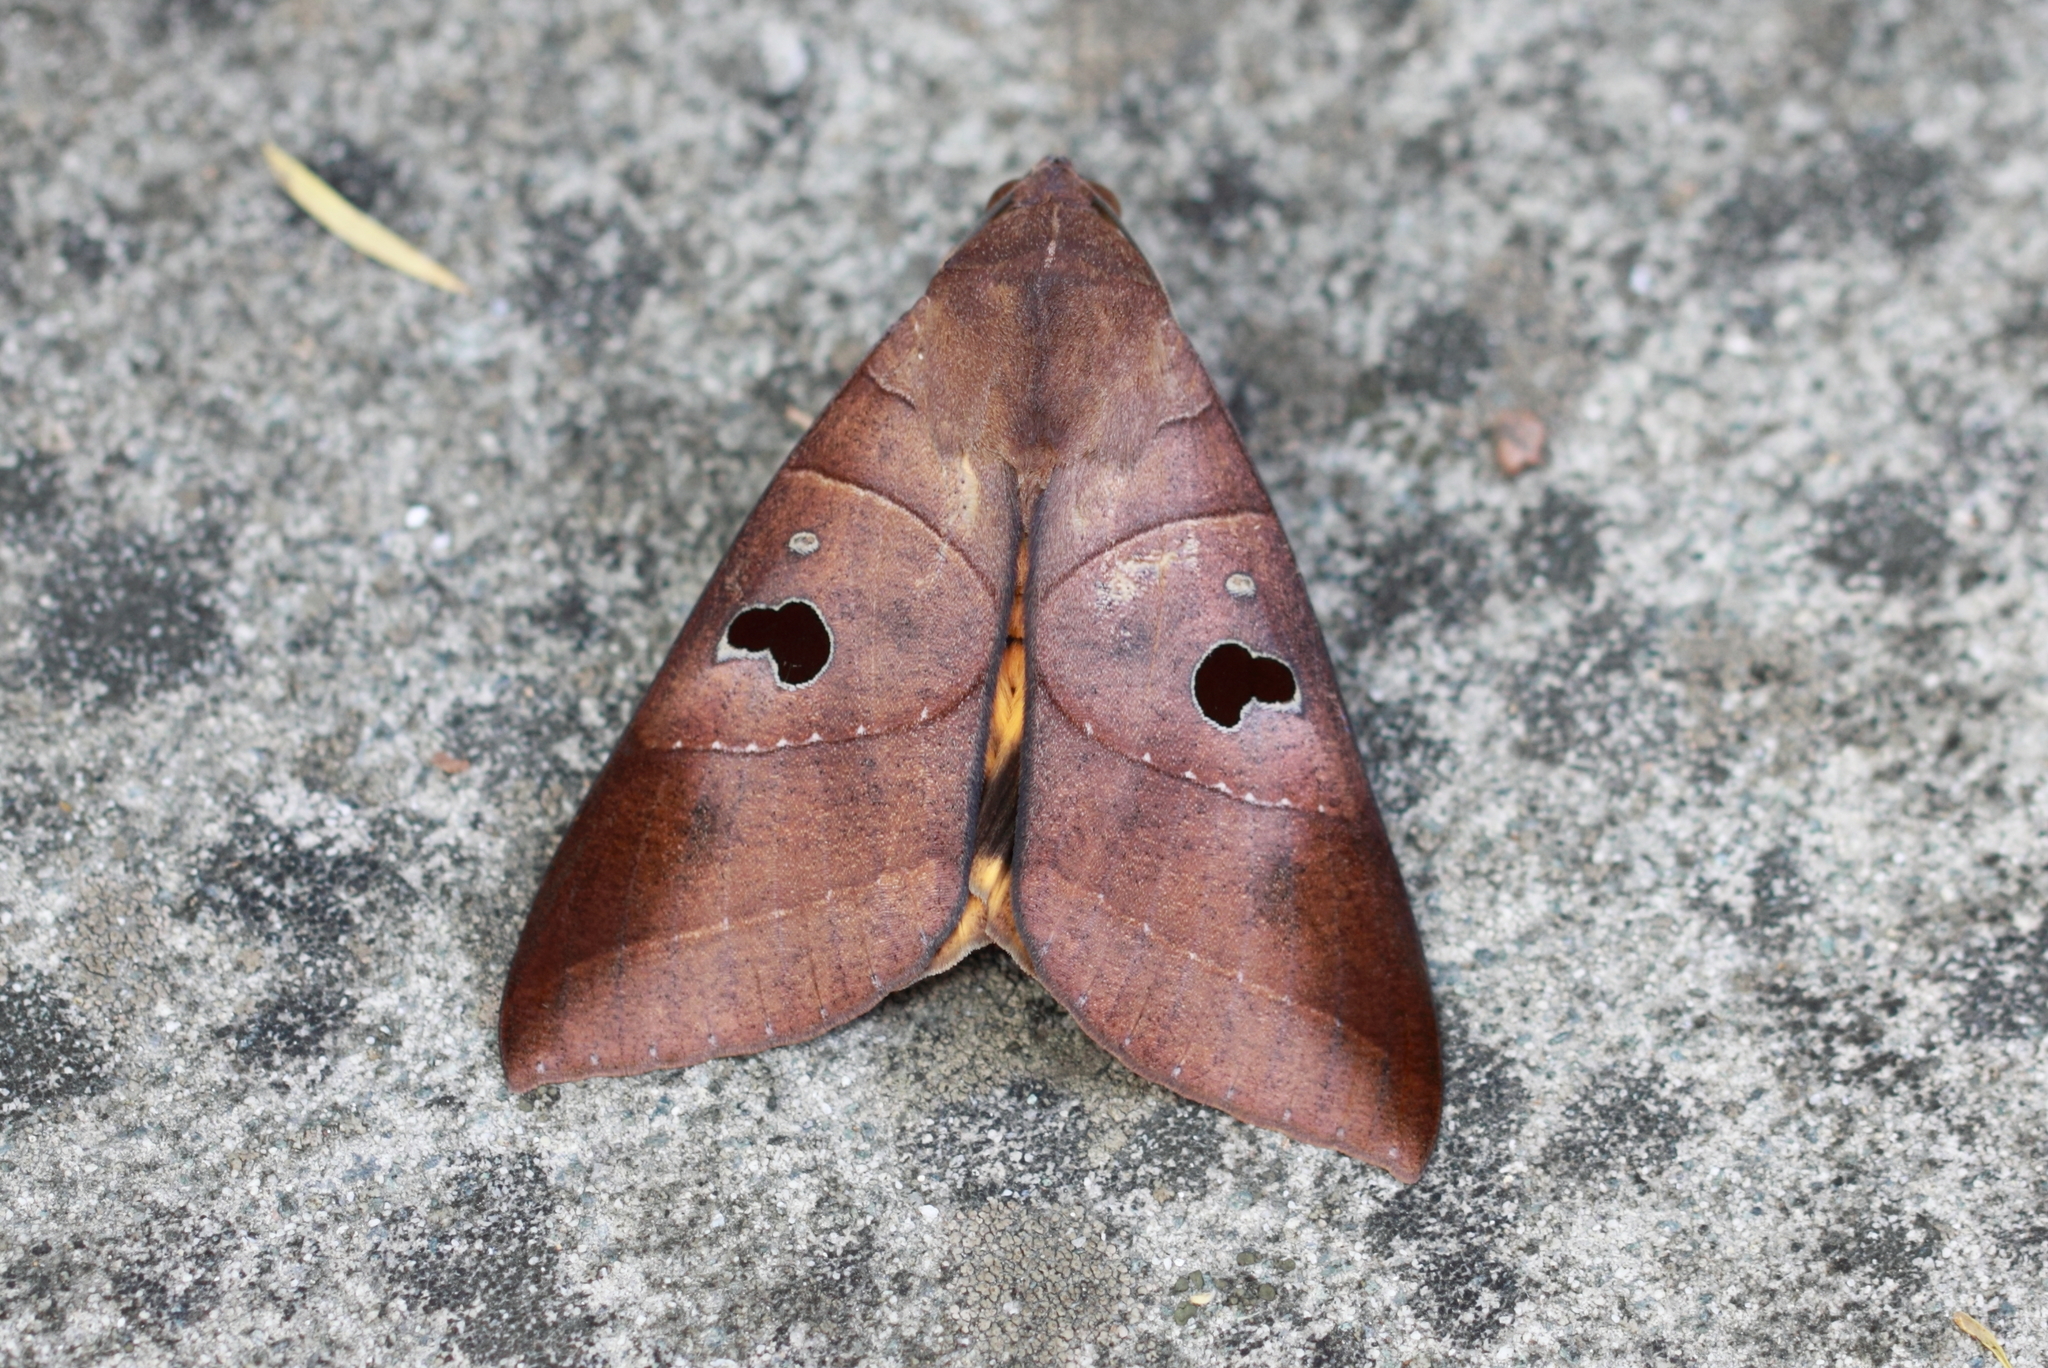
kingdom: Animalia
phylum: Arthropoda
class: Insecta
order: Lepidoptera
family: Erebidae
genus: Thyas
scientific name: Thyas coronata
